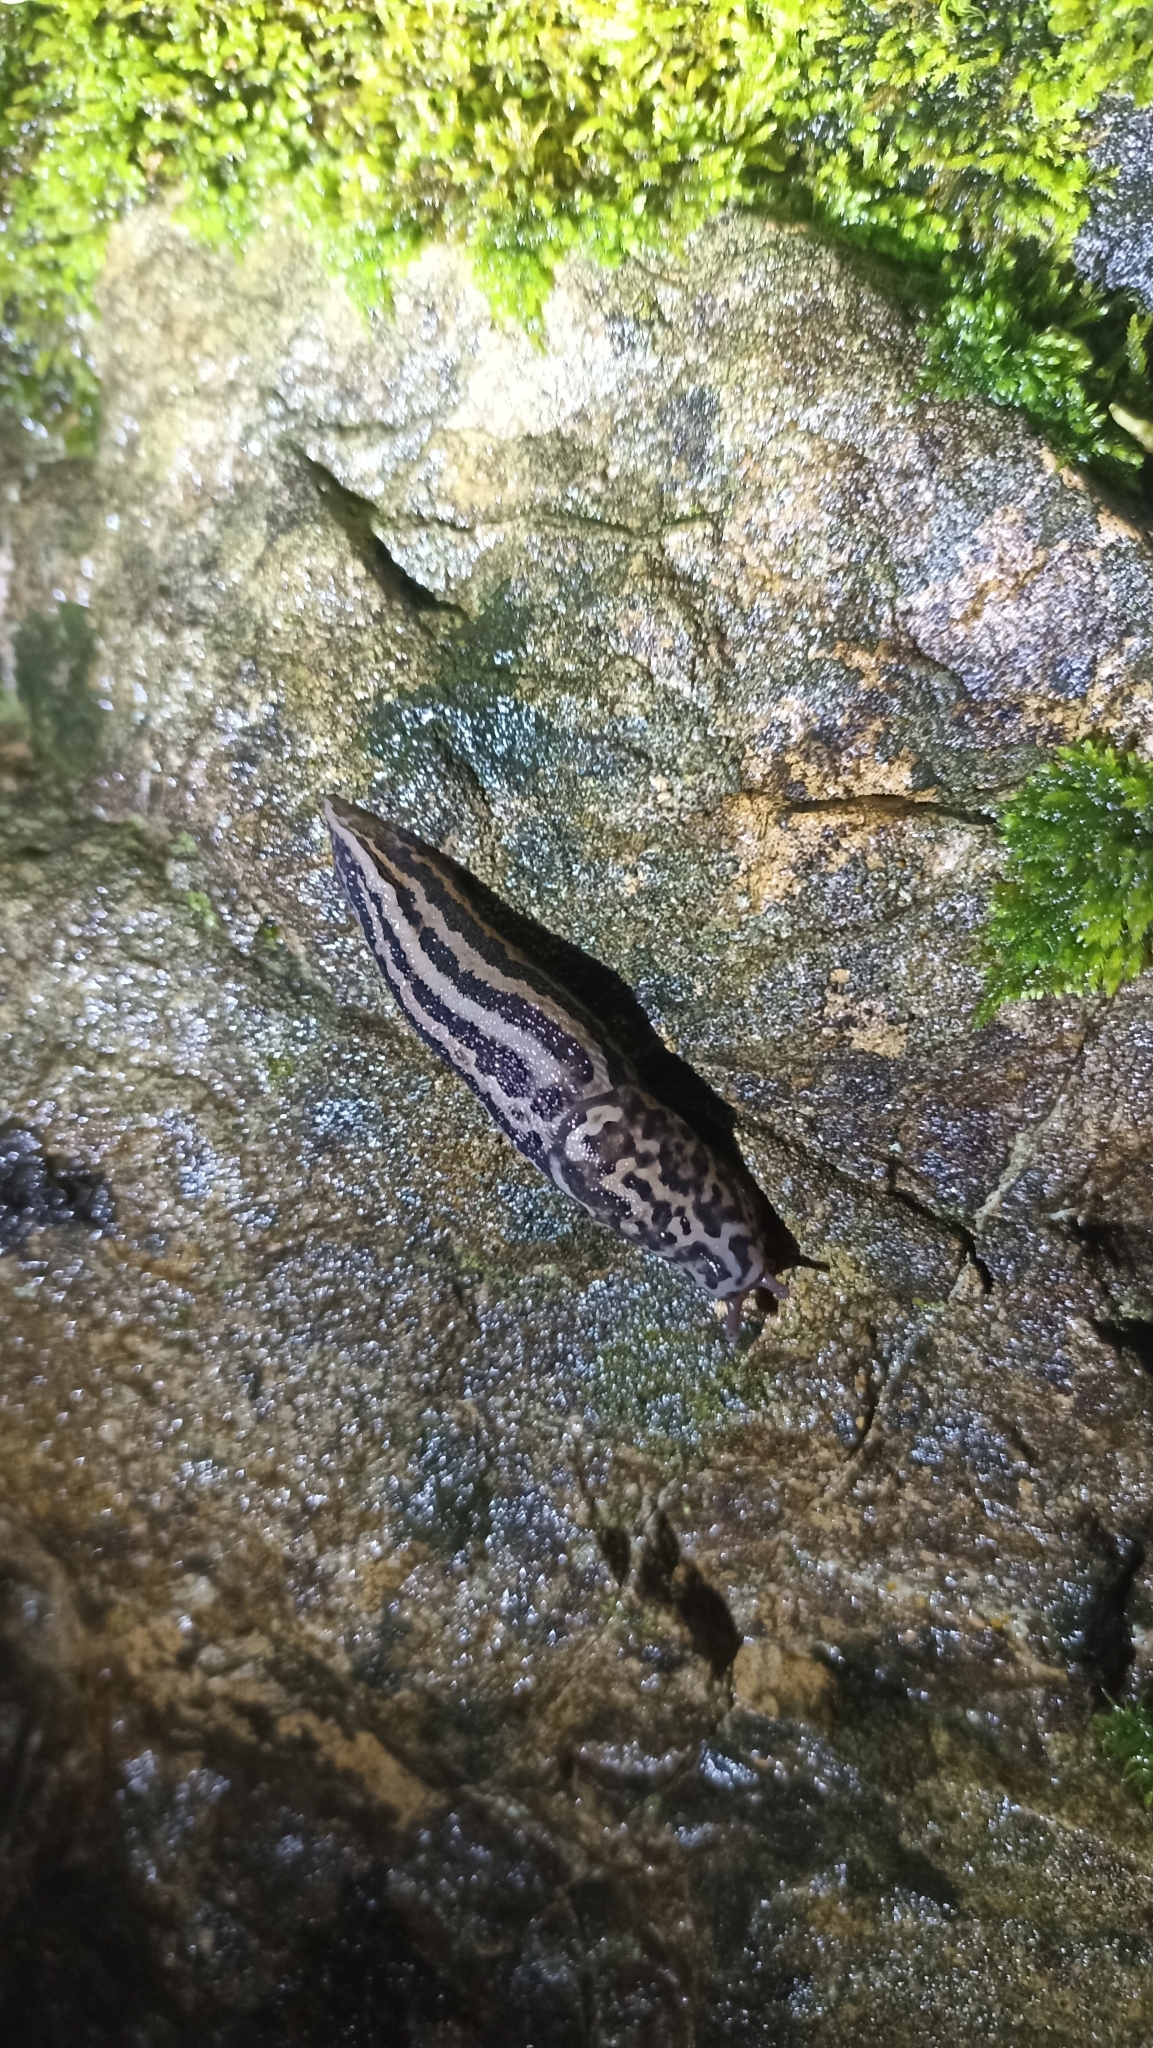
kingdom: Animalia
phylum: Mollusca
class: Gastropoda
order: Stylommatophora
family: Limacidae
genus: Limax
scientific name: Limax maximus
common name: Great grey slug
